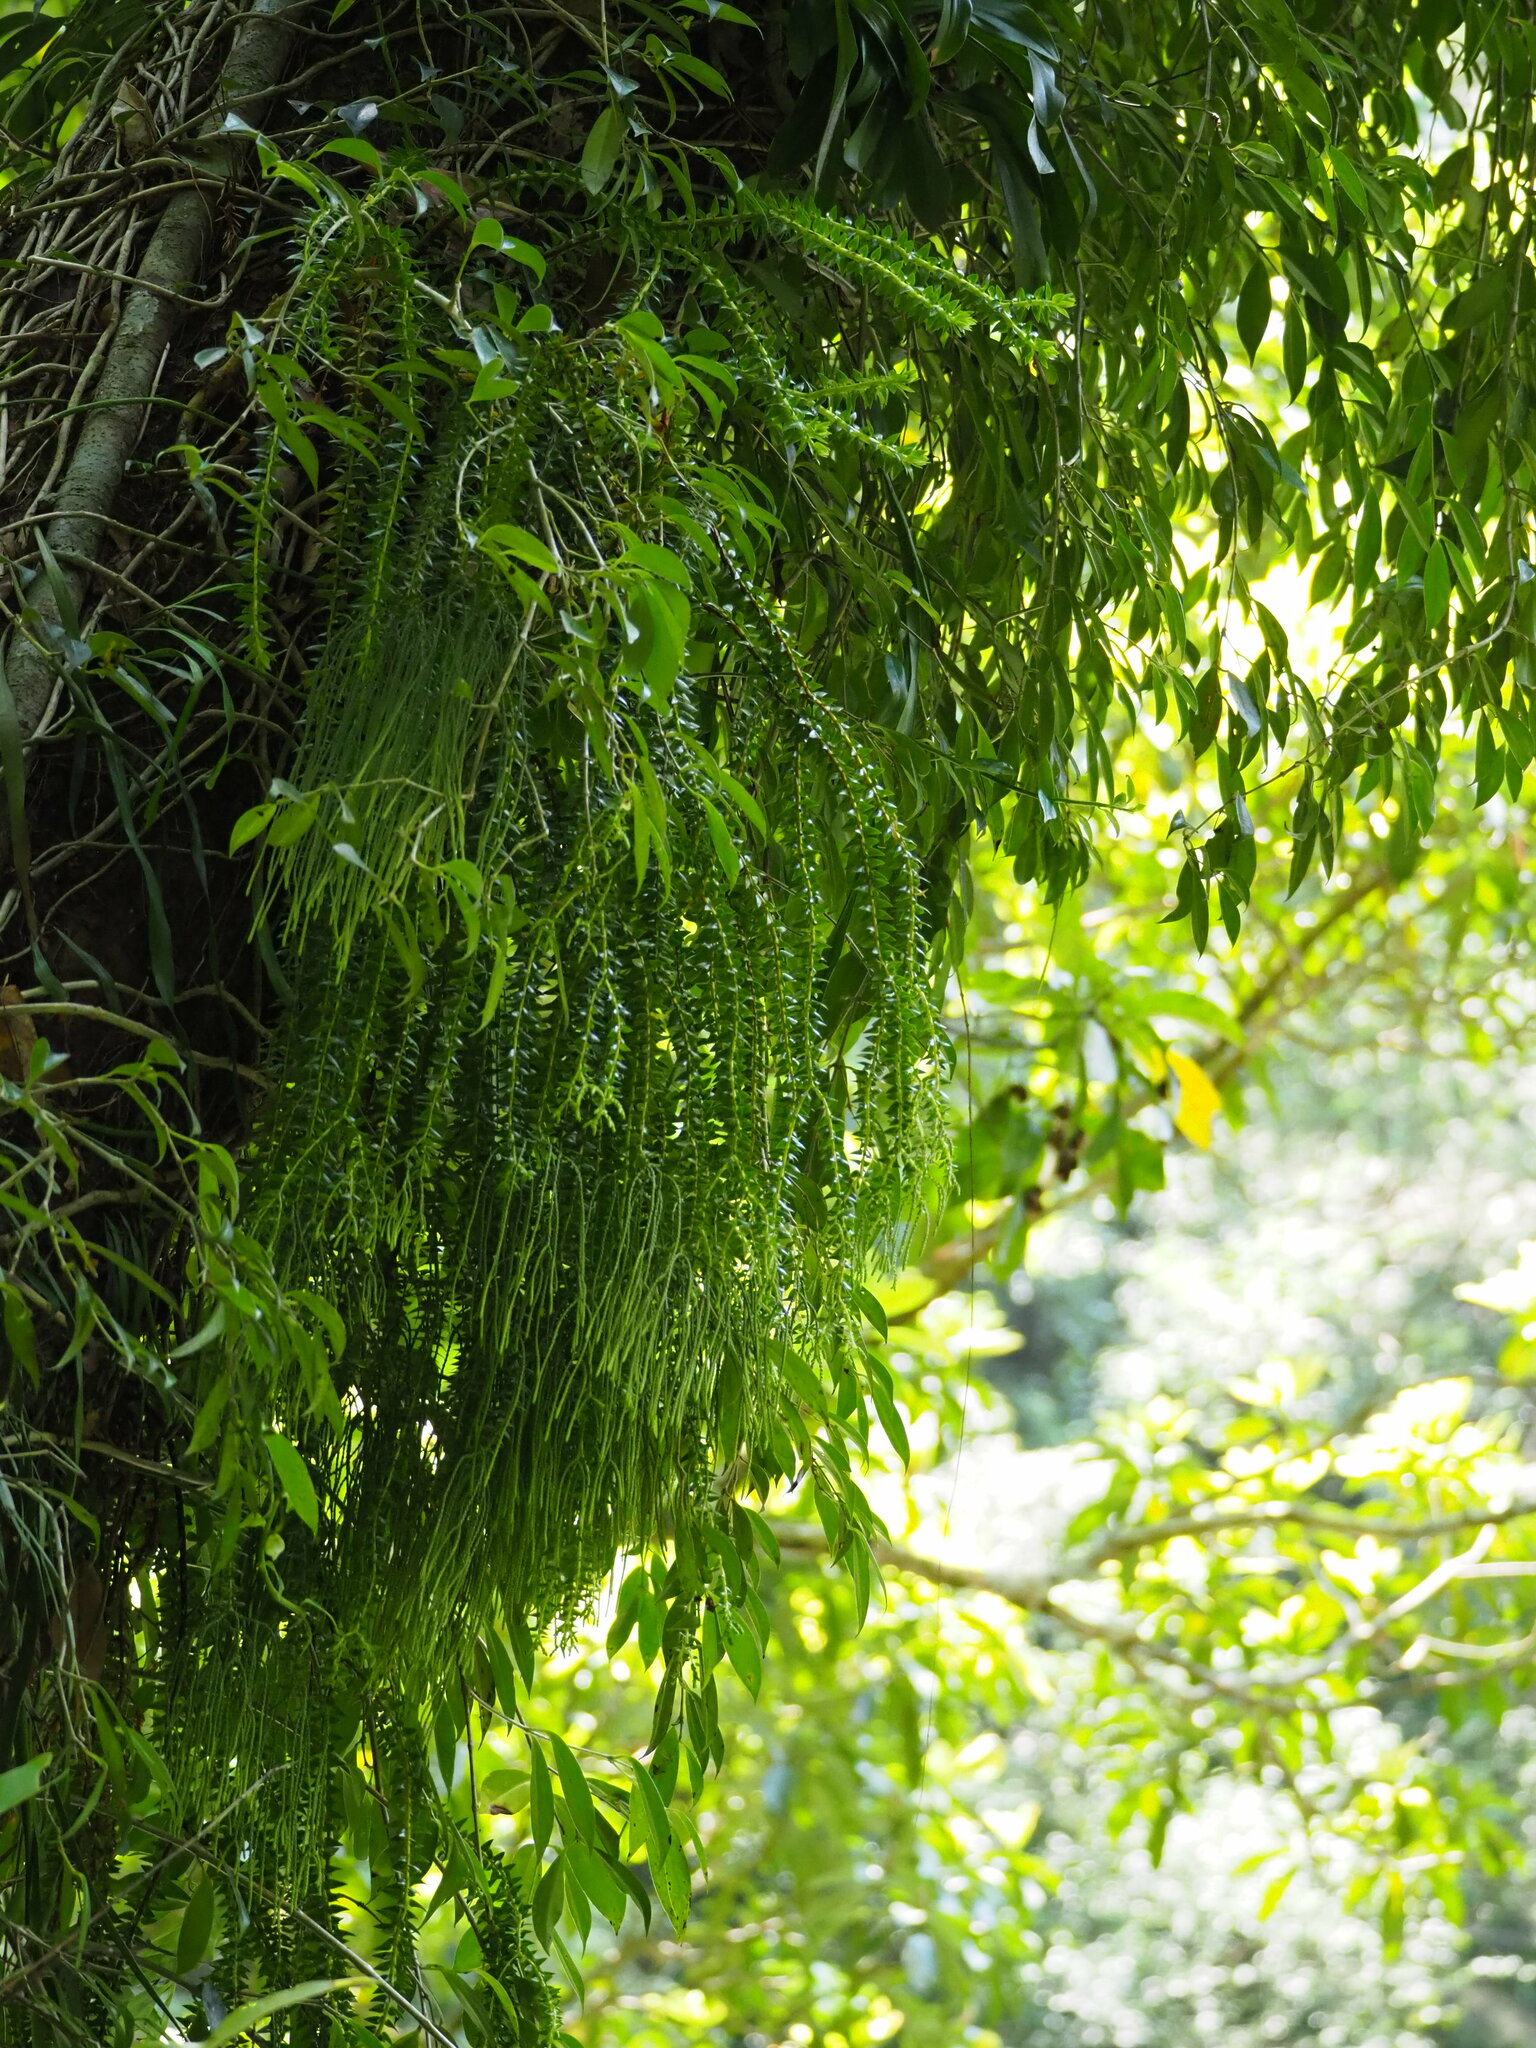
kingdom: Plantae
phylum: Tracheophyta
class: Lycopodiopsida
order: Lycopodiales
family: Lycopodiaceae
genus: Phlegmariurus
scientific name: Phlegmariurus phlegmaria
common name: Coarse tassel-fern
